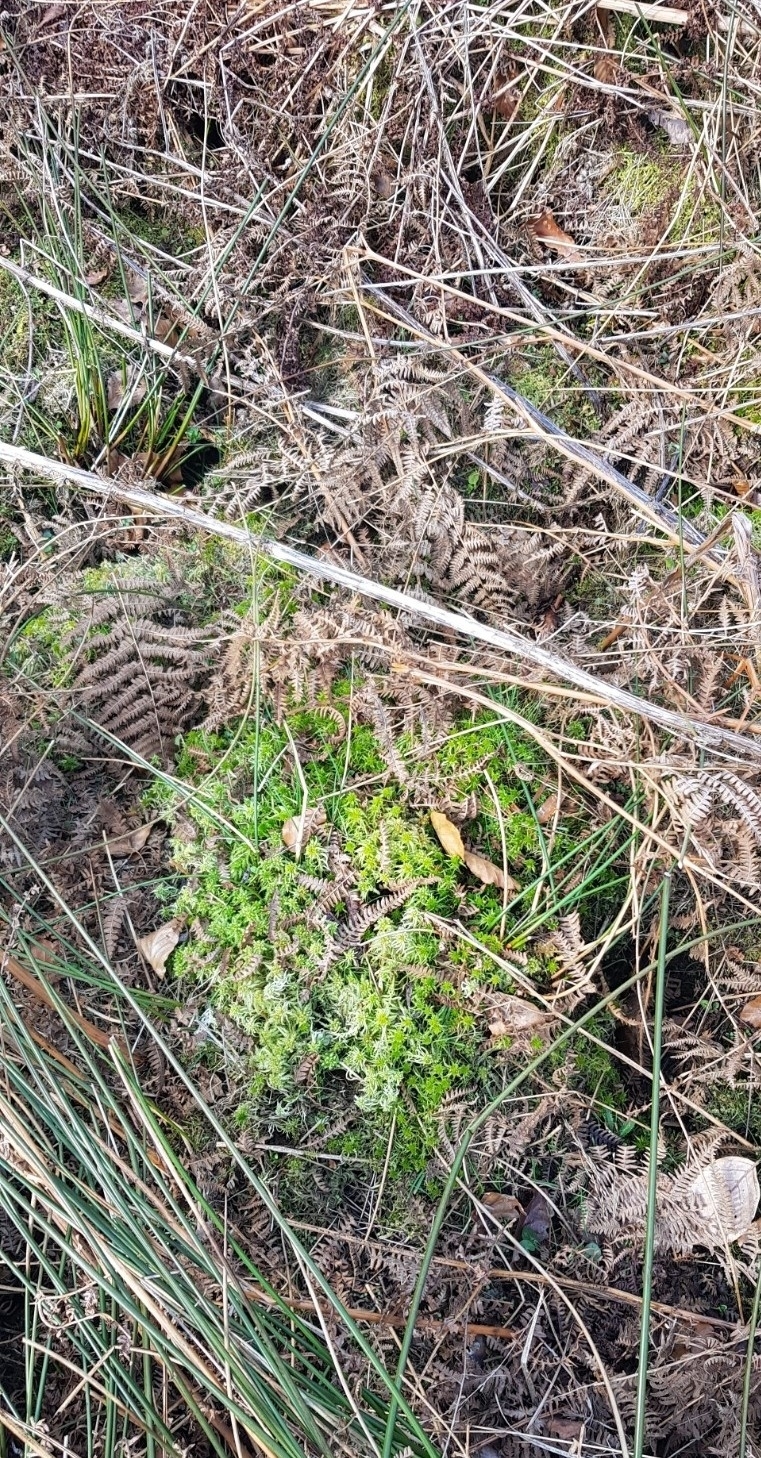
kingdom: Plantae
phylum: Bryophyta
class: Sphagnopsida
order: Sphagnales
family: Sphagnaceae
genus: Sphagnum
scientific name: Sphagnum fallax
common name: Flat-top peat moss
